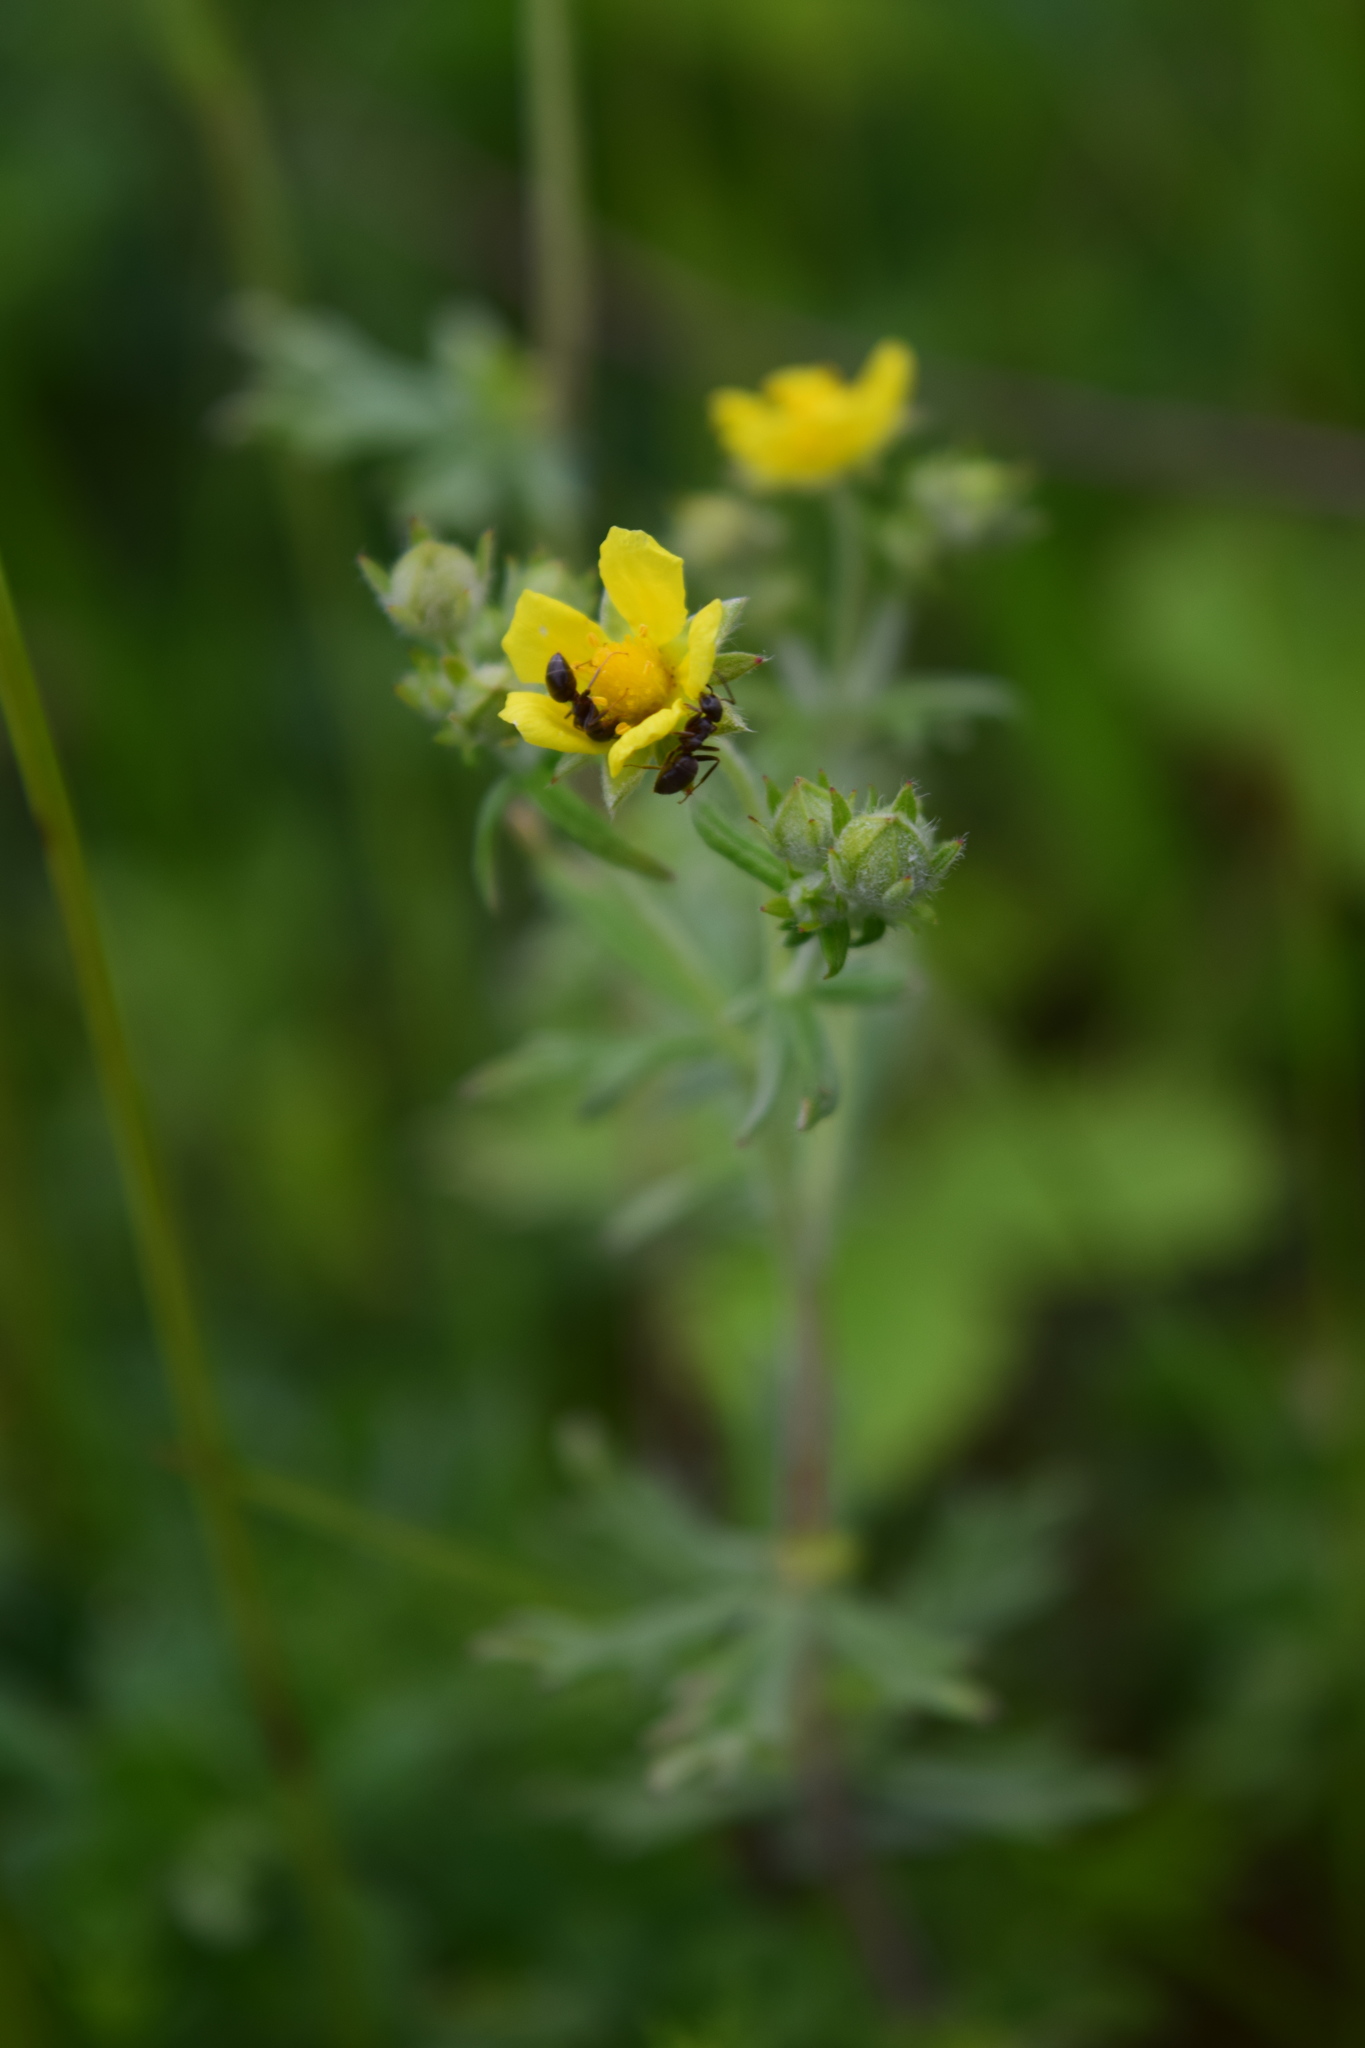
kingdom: Plantae
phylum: Tracheophyta
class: Magnoliopsida
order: Rosales
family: Rosaceae
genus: Potentilla
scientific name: Potentilla argentea
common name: Hoary cinquefoil
